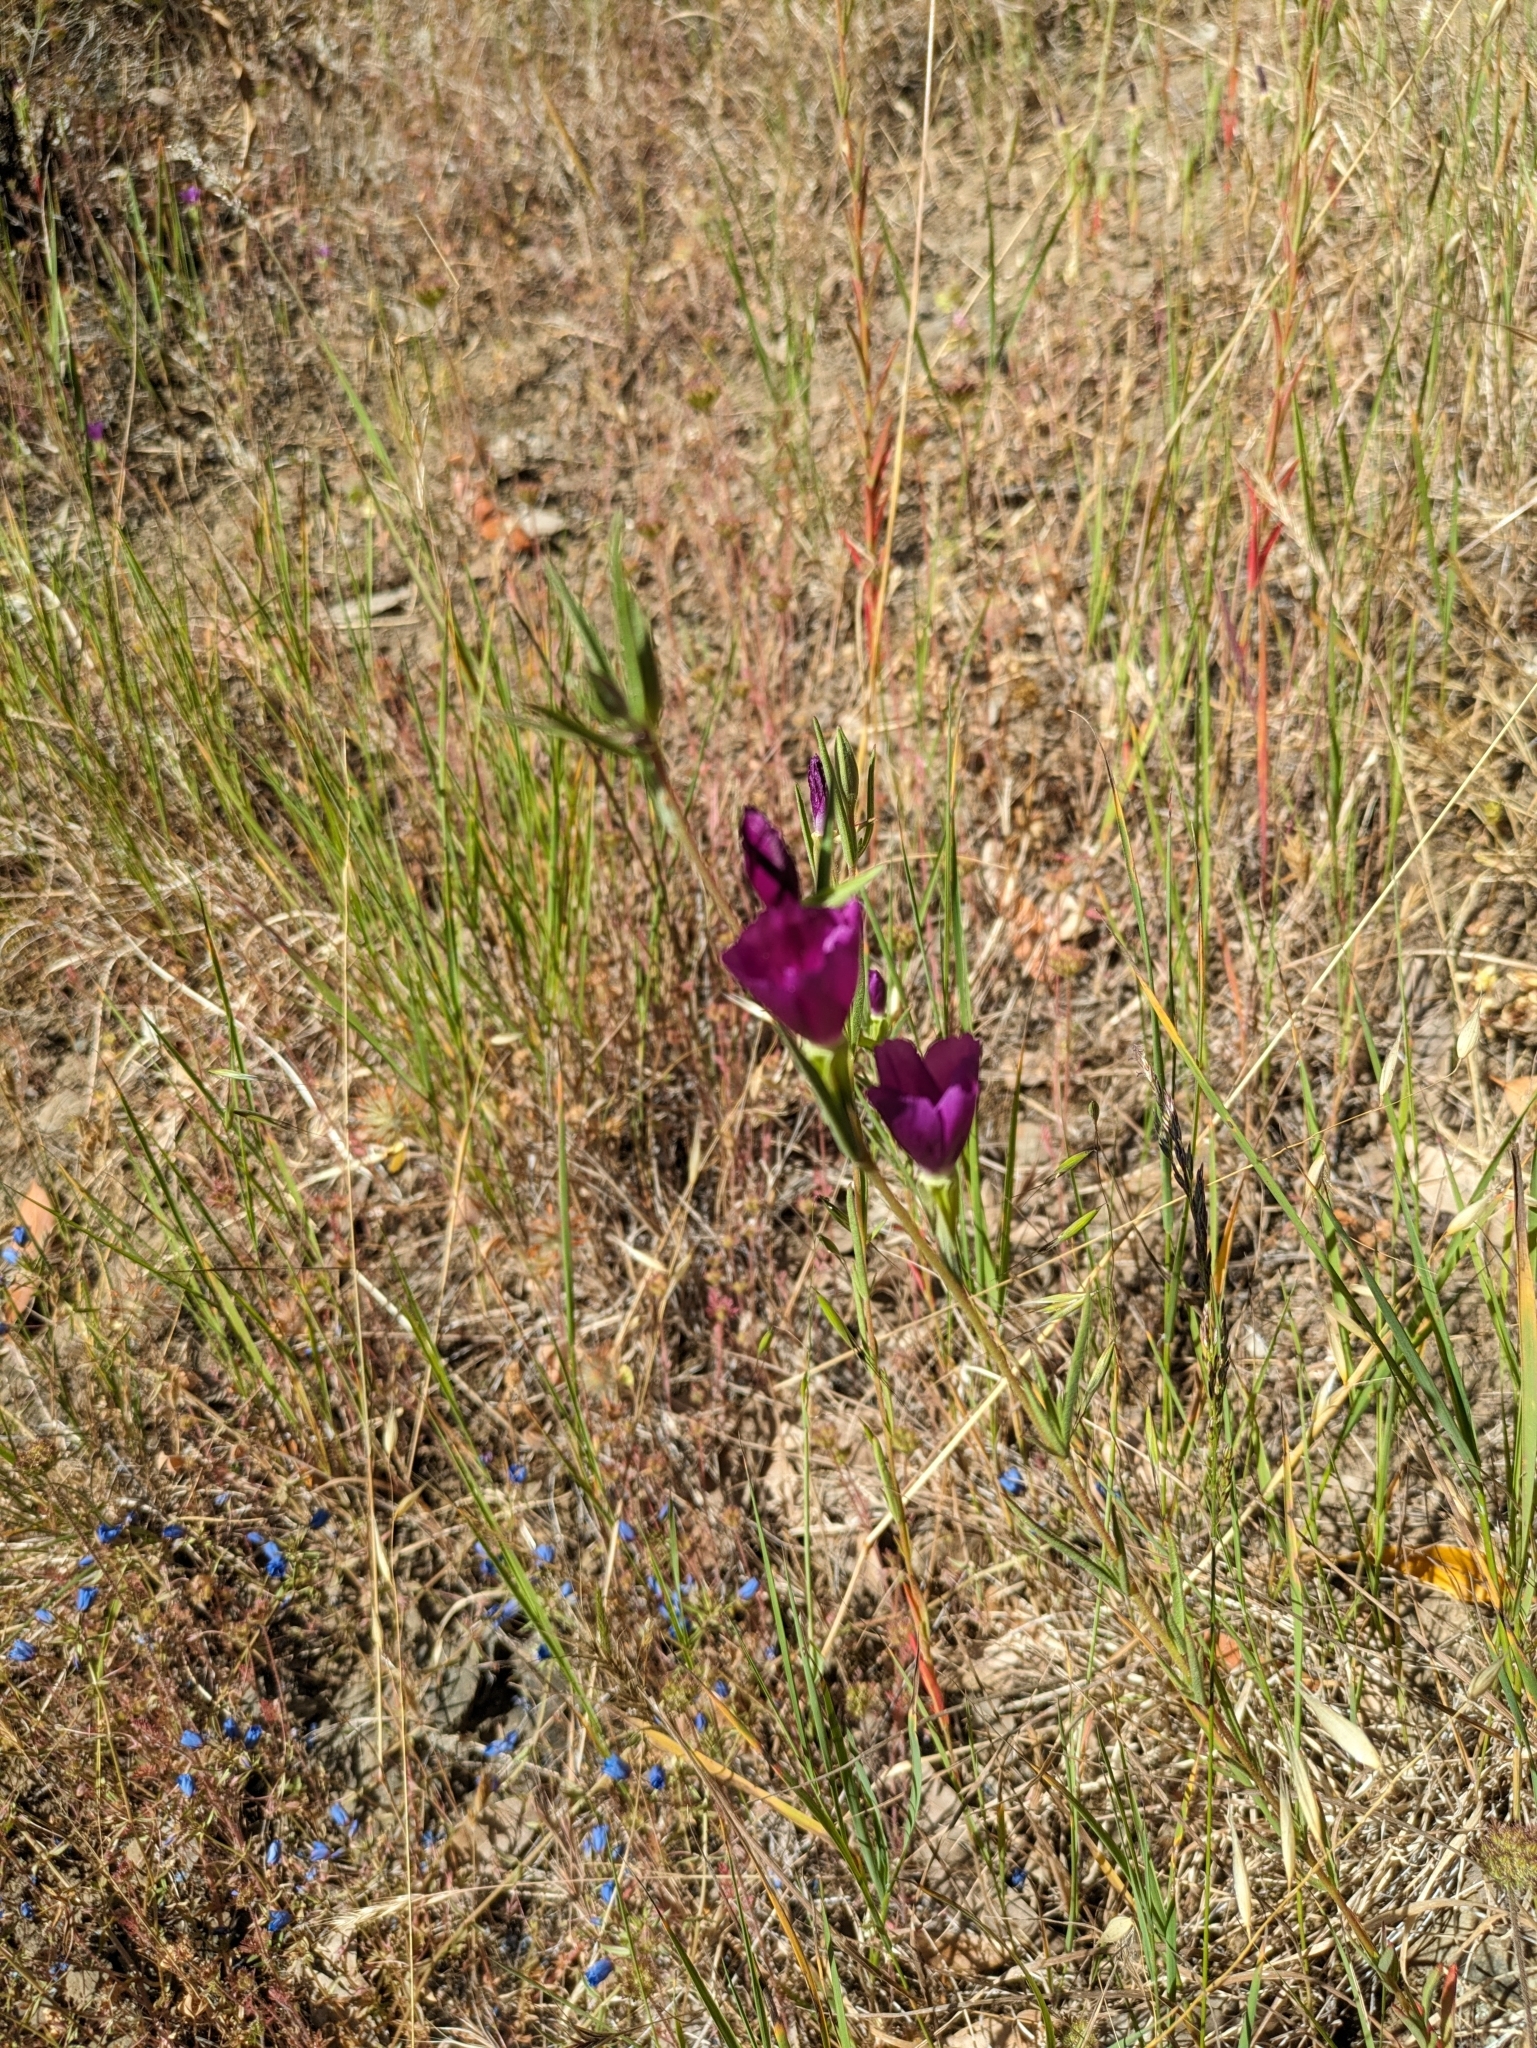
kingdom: Plantae
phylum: Tracheophyta
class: Magnoliopsida
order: Myrtales
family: Onagraceae
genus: Clarkia
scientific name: Clarkia purpurea
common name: Purple clarkia
